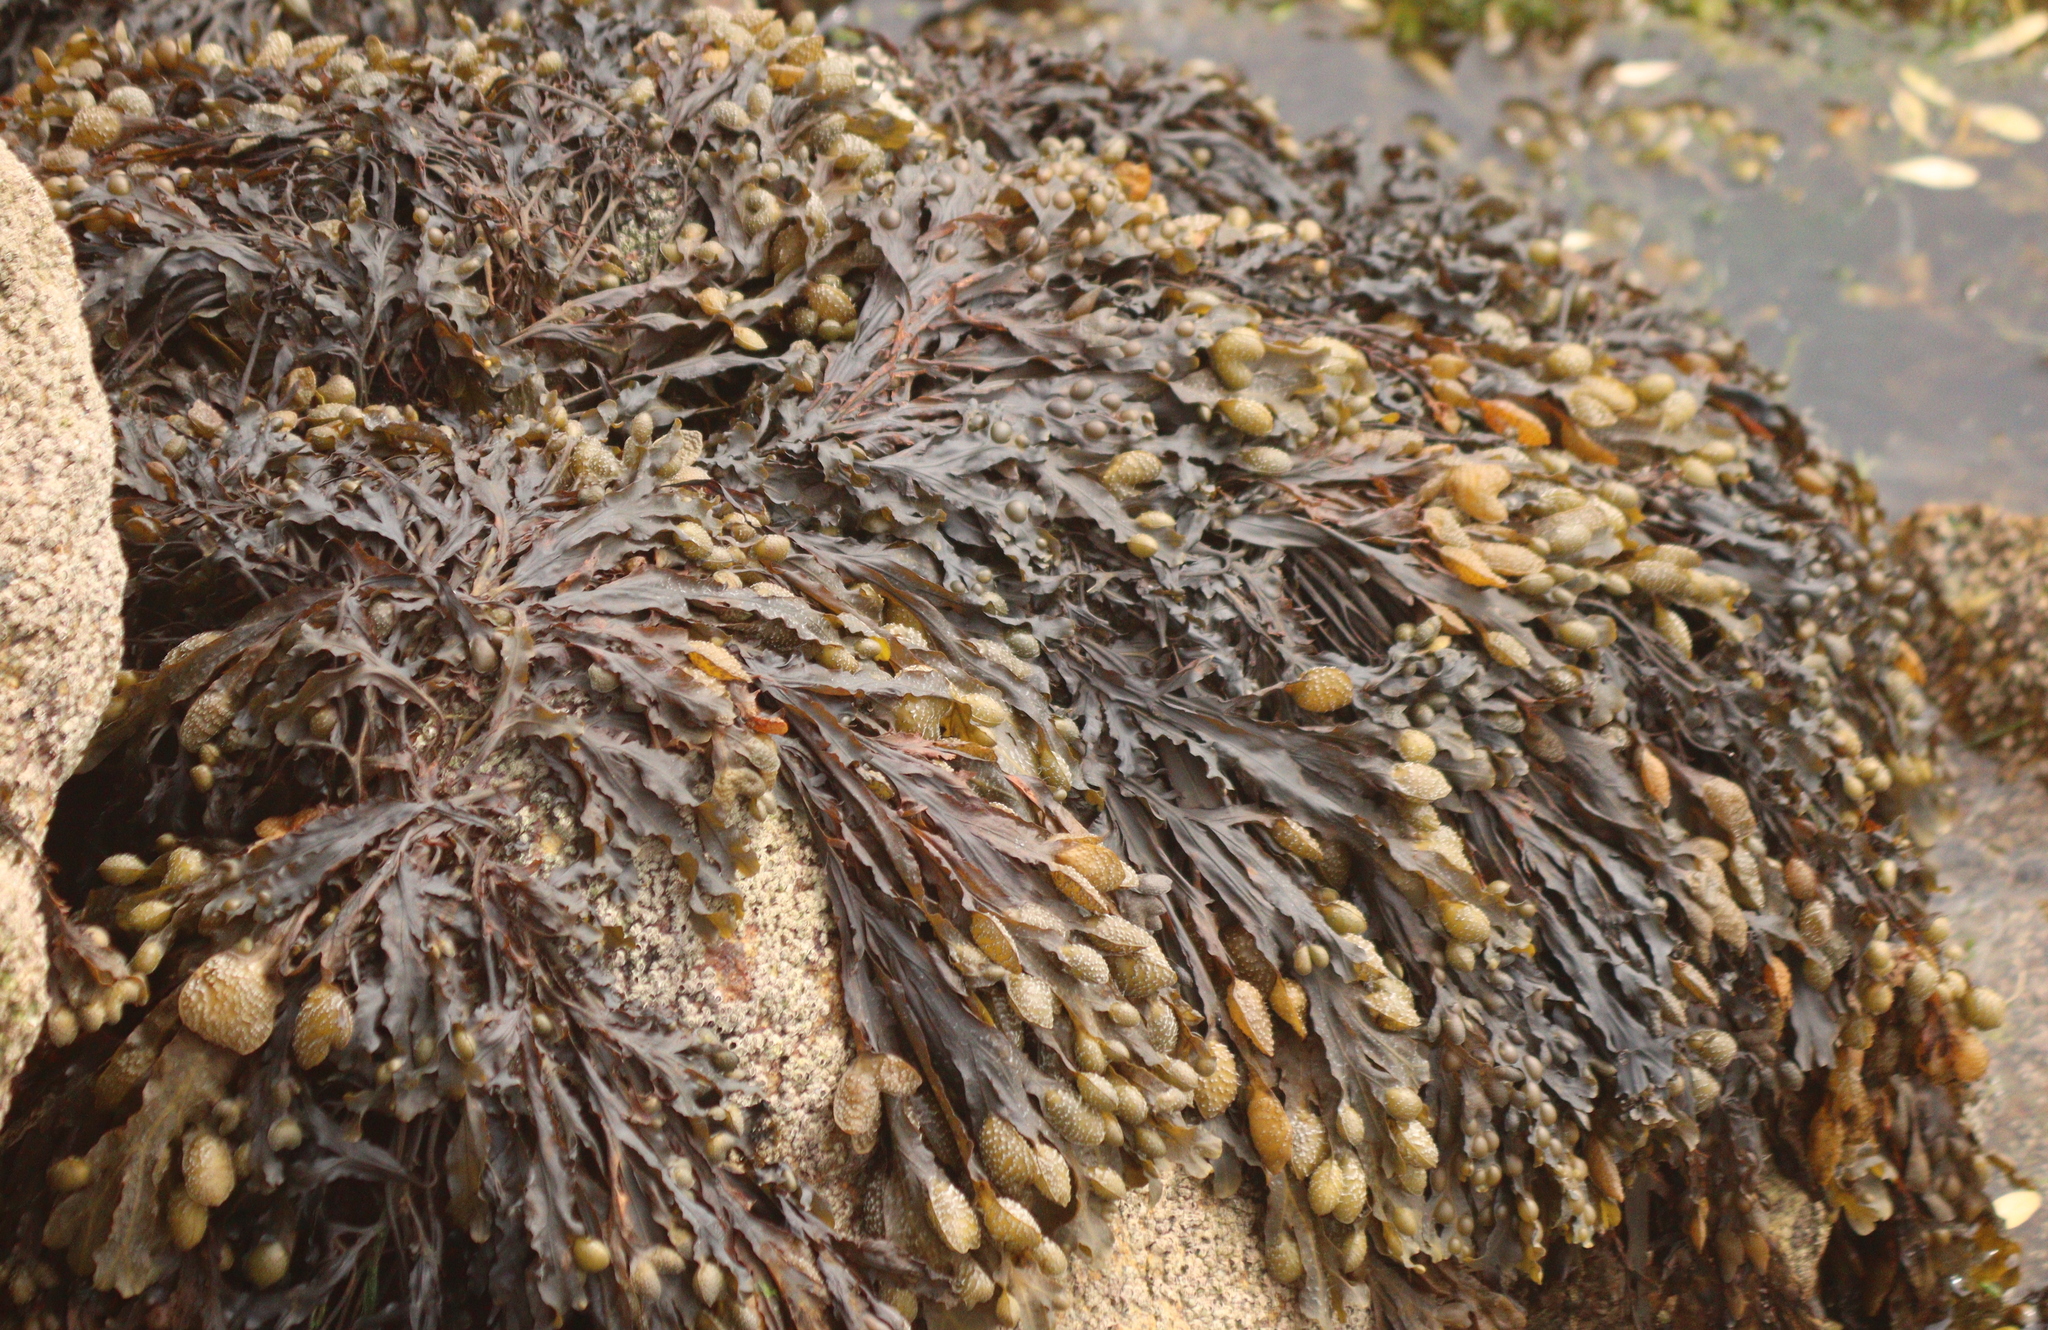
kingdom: Chromista
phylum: Ochrophyta
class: Phaeophyceae
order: Fucales
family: Fucaceae
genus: Fucus
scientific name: Fucus spiralis
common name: Spiral wrack
